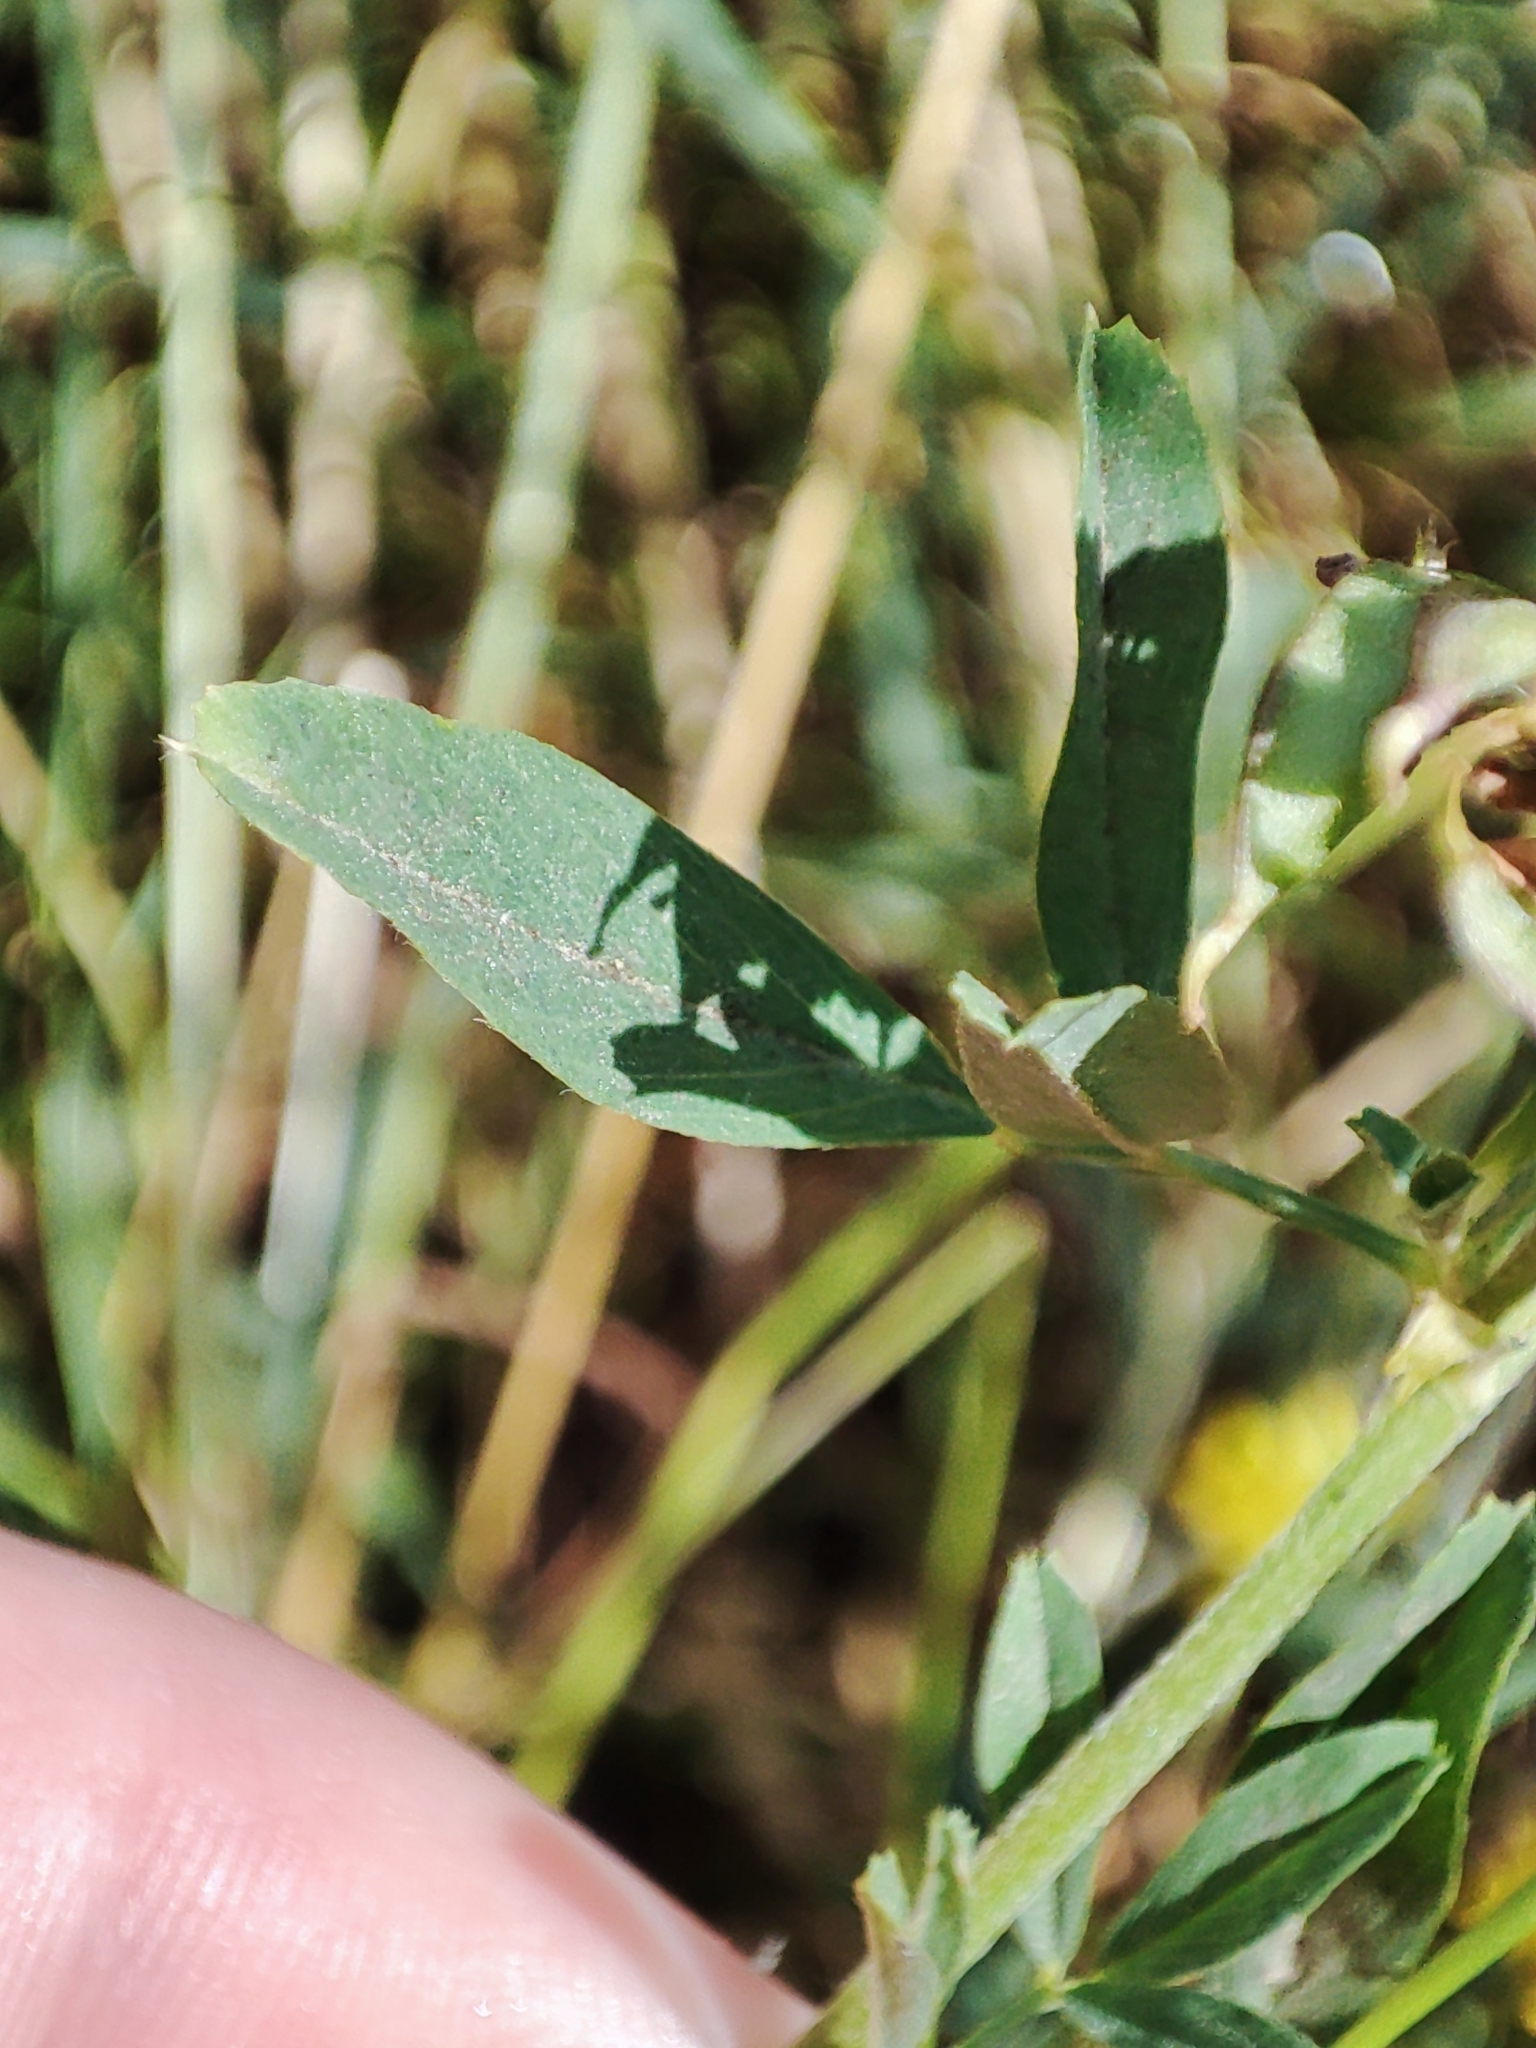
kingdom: Plantae
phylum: Tracheophyta
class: Magnoliopsida
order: Fabales
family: Fabaceae
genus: Medicago
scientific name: Medicago falcata
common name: Sickle medick
